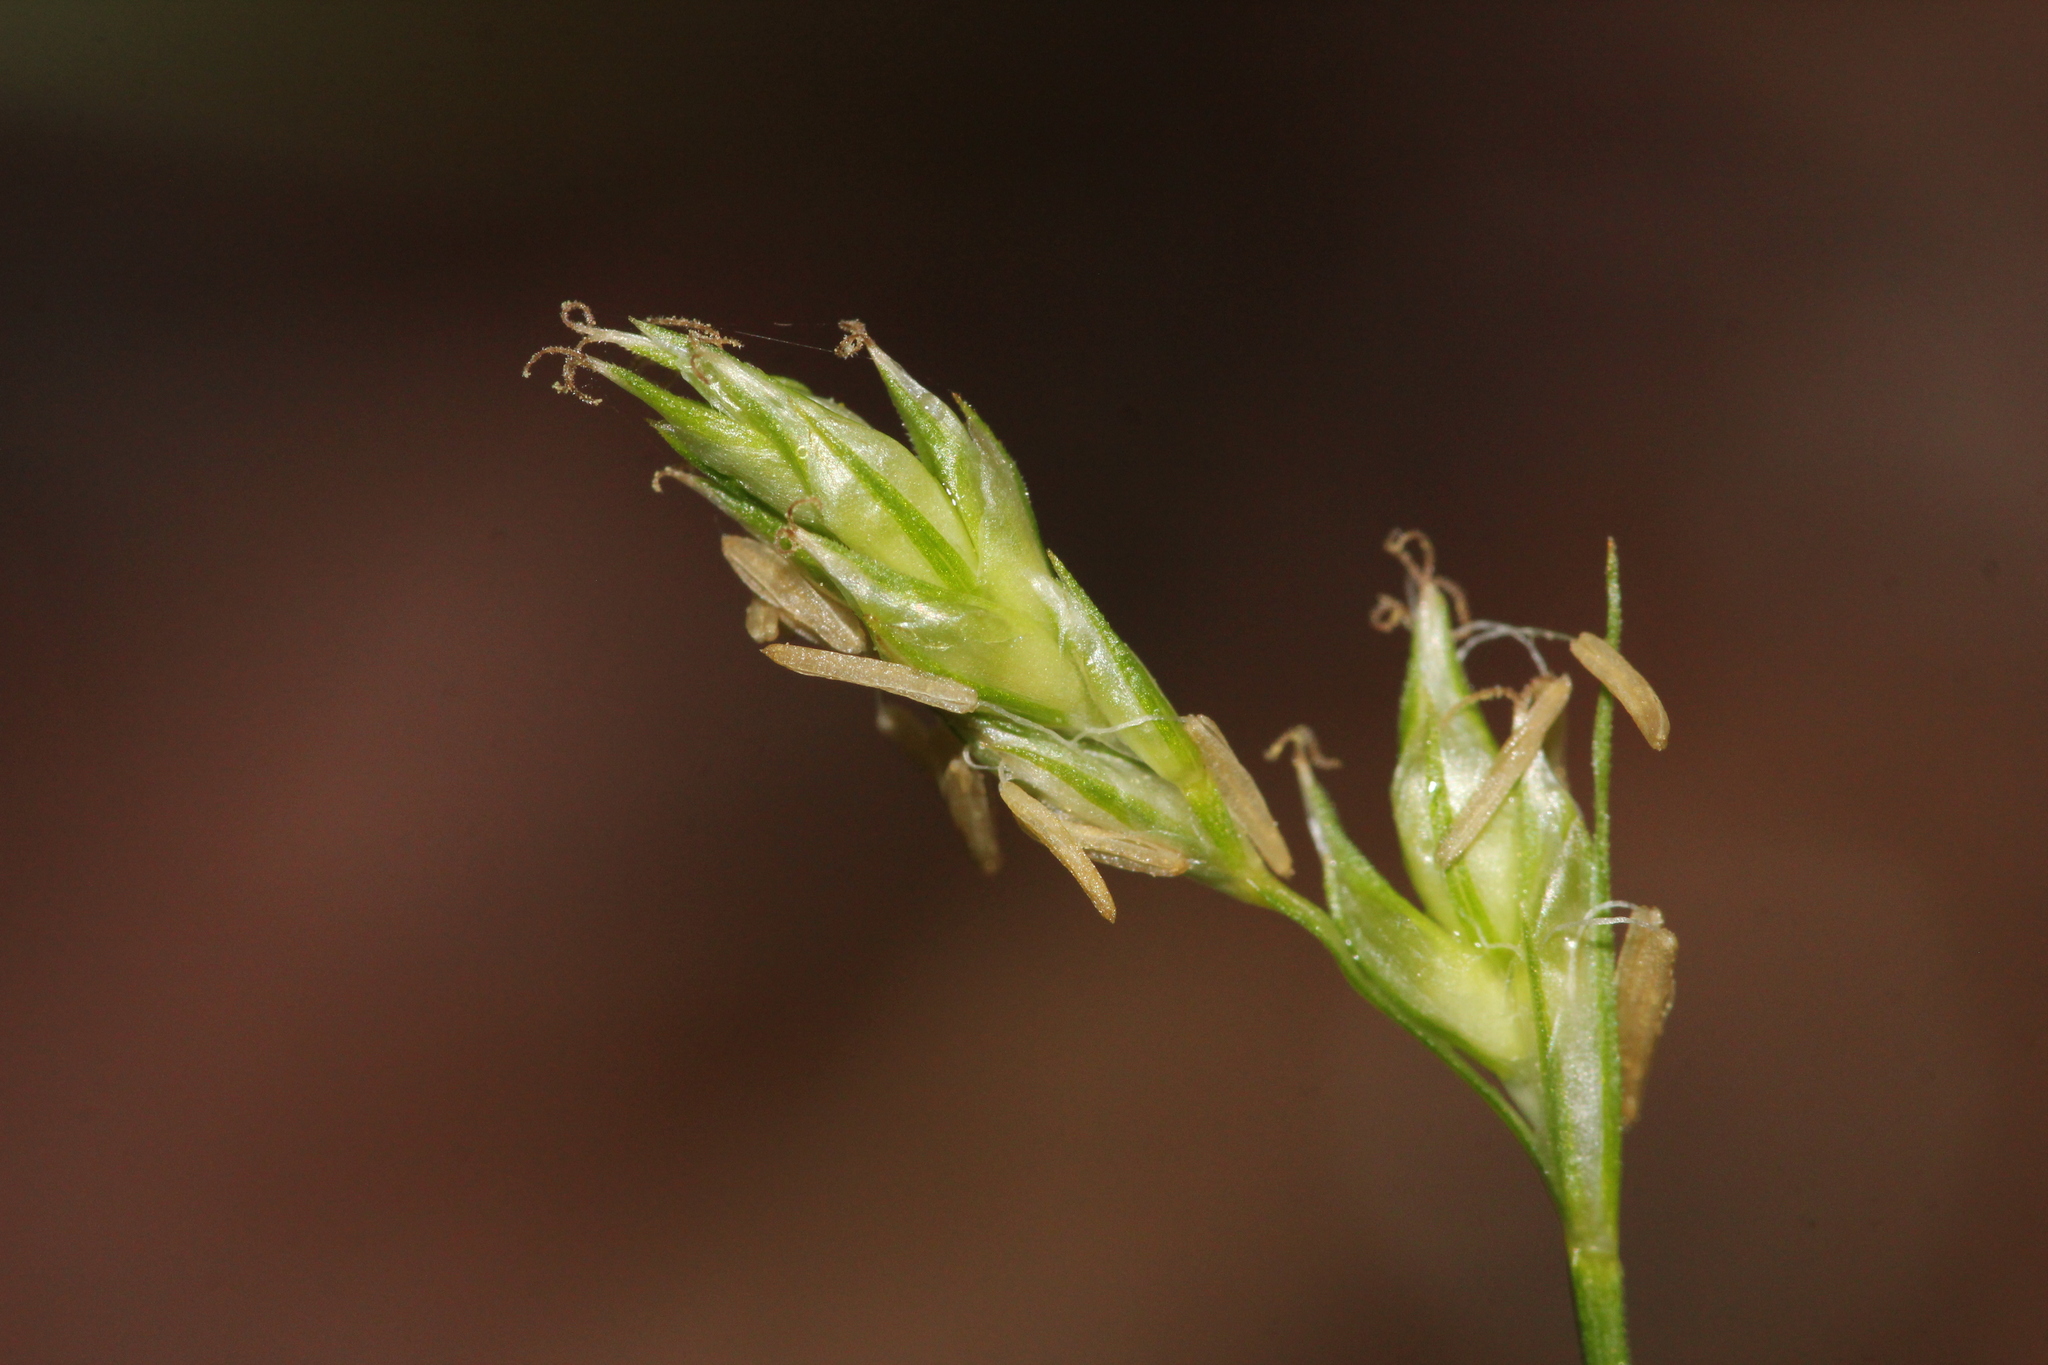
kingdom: Plantae
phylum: Tracheophyta
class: Liliopsida
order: Poales
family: Cyperaceae
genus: Carex
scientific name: Carex deweyana
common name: Dewey's sedge
